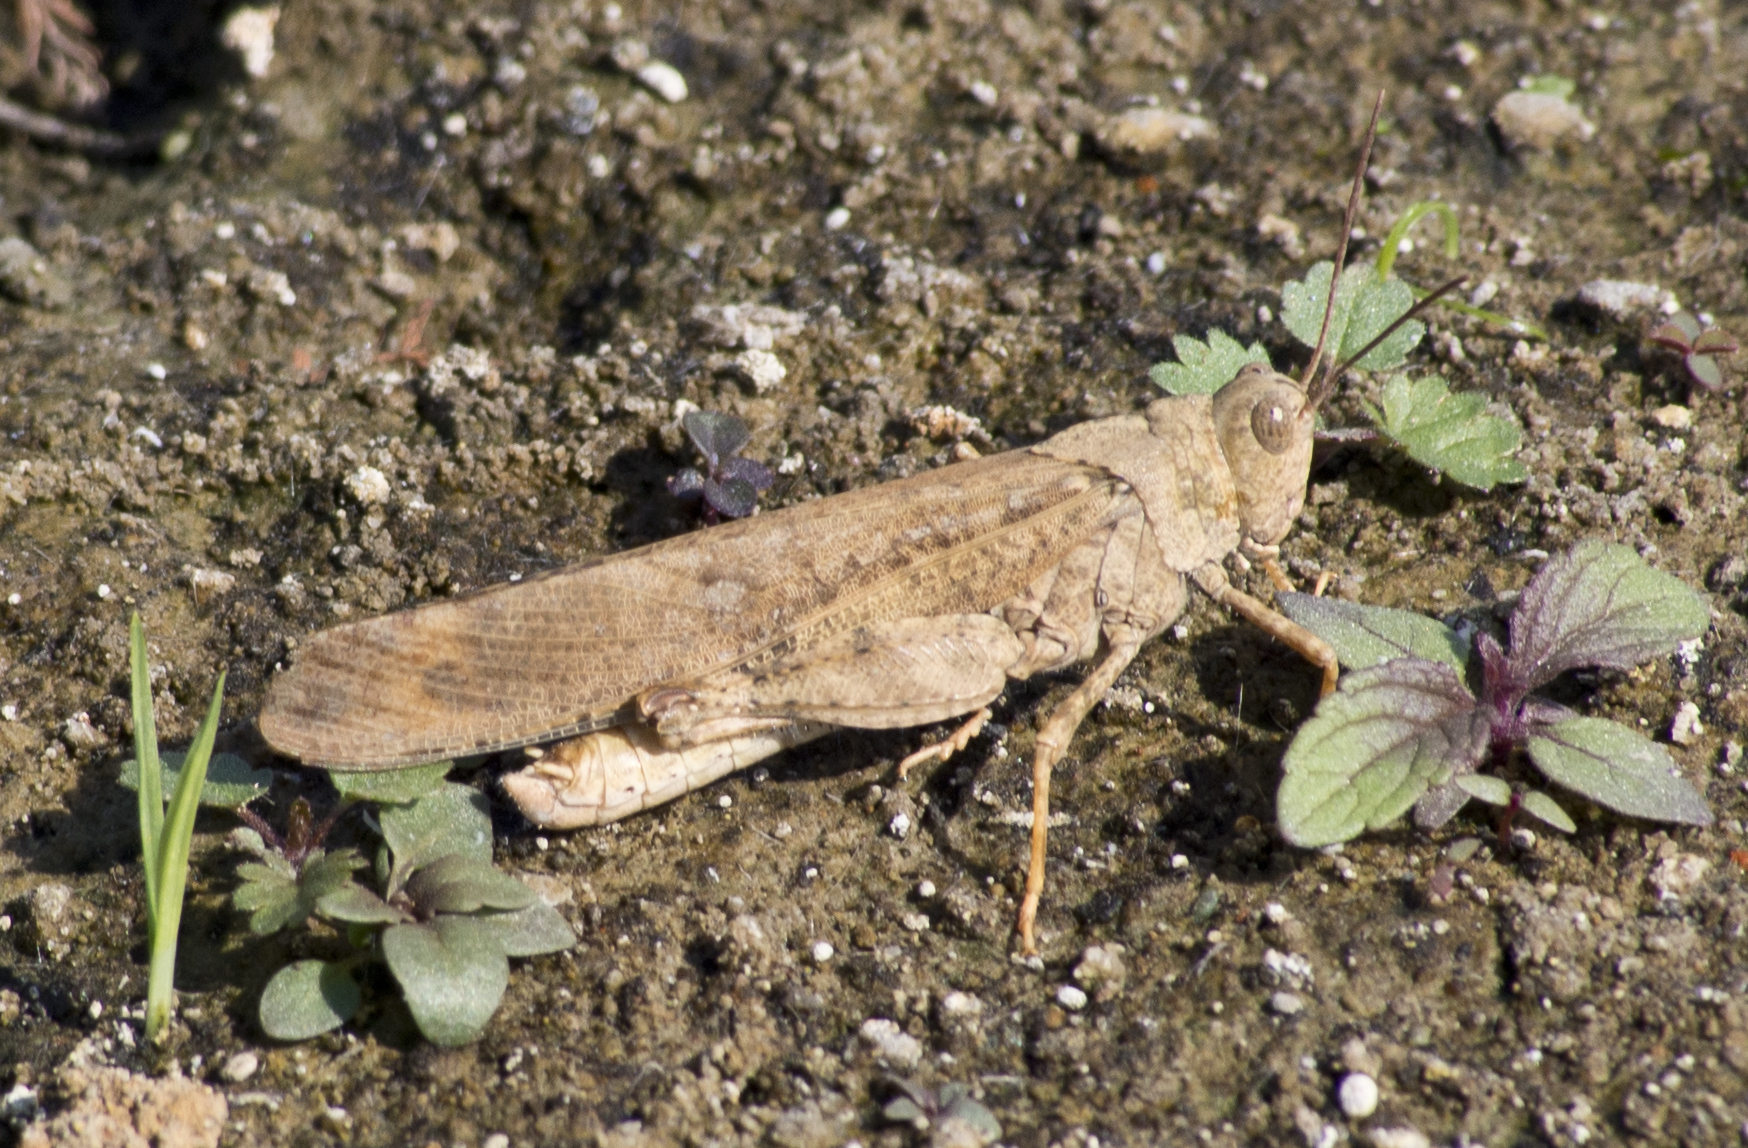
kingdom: Animalia
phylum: Arthropoda
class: Insecta
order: Orthoptera
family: Acrididae
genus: Dissosteira
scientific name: Dissosteira carolina
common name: Carolina grasshopper
